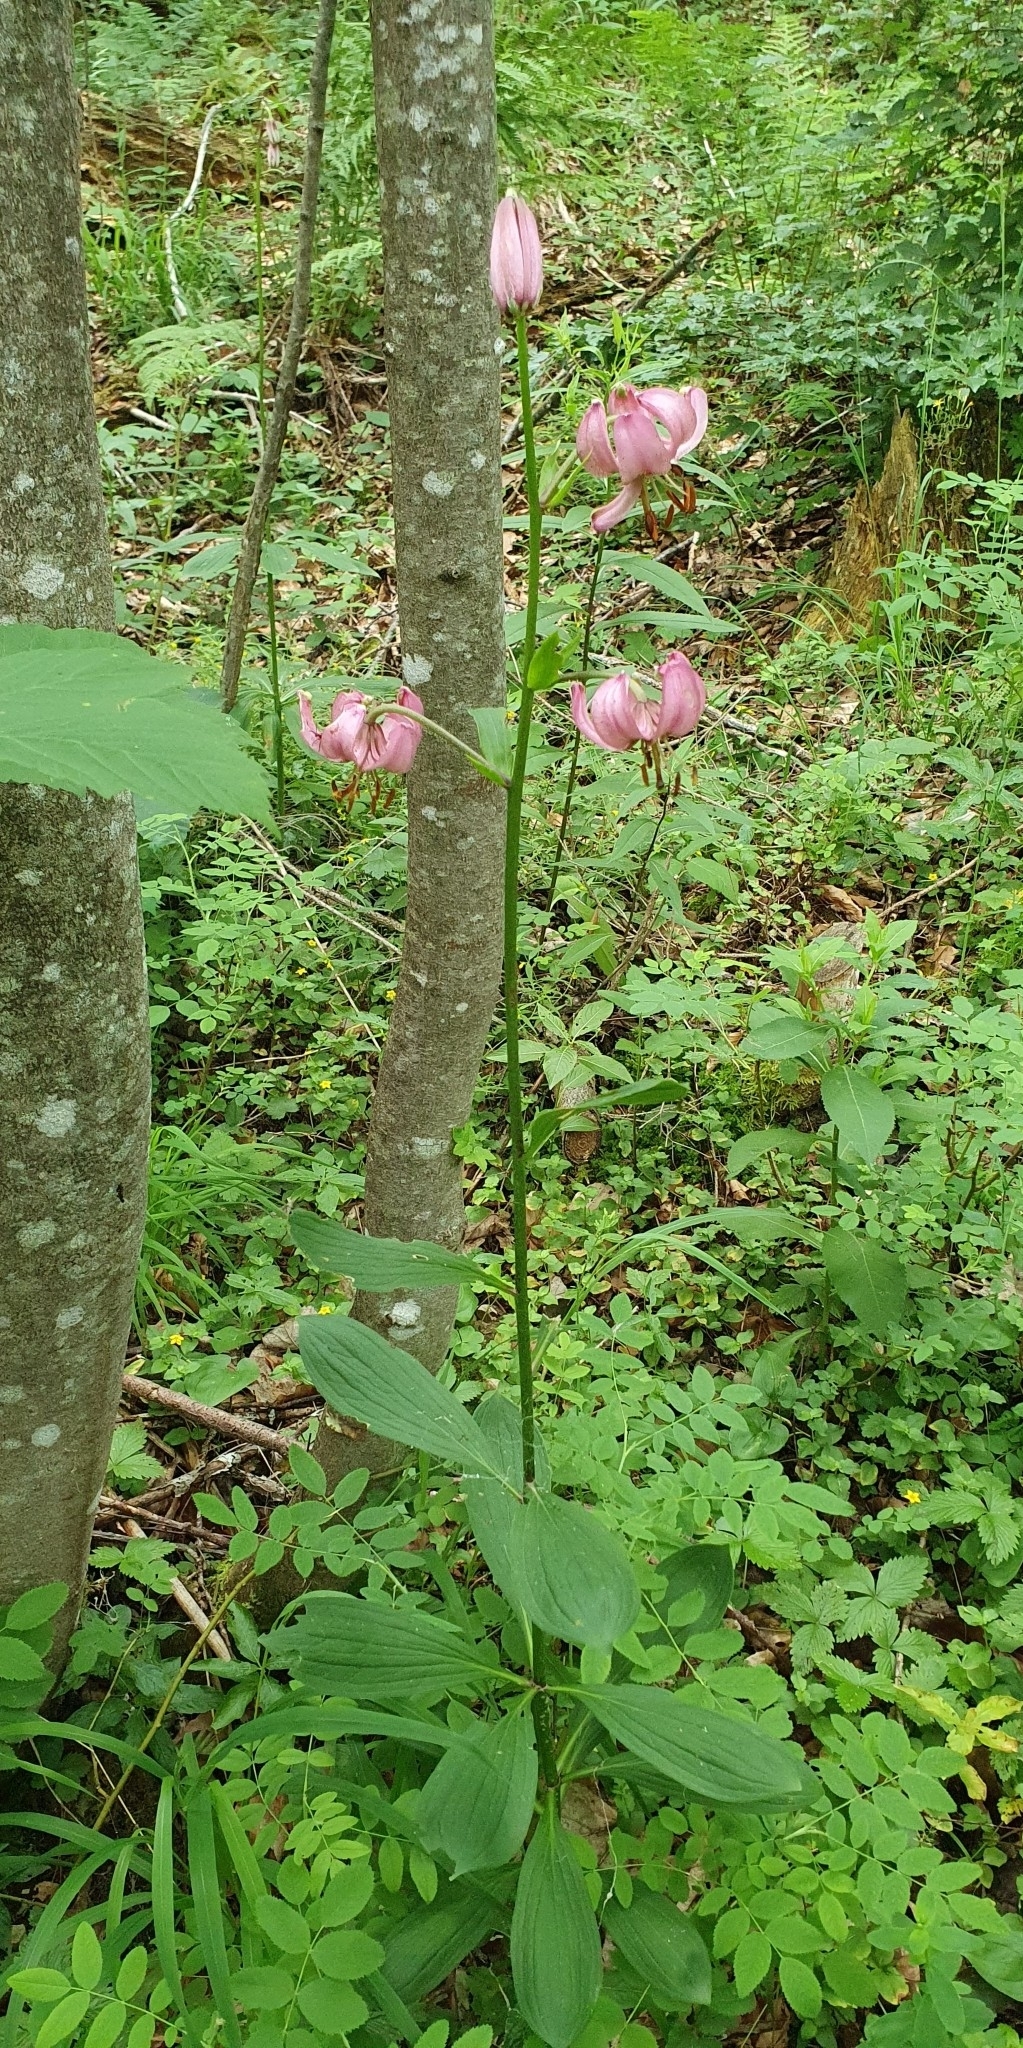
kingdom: Plantae
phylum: Tracheophyta
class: Liliopsida
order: Liliales
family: Liliaceae
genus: Lilium
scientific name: Lilium martagon
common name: Martagon lily
